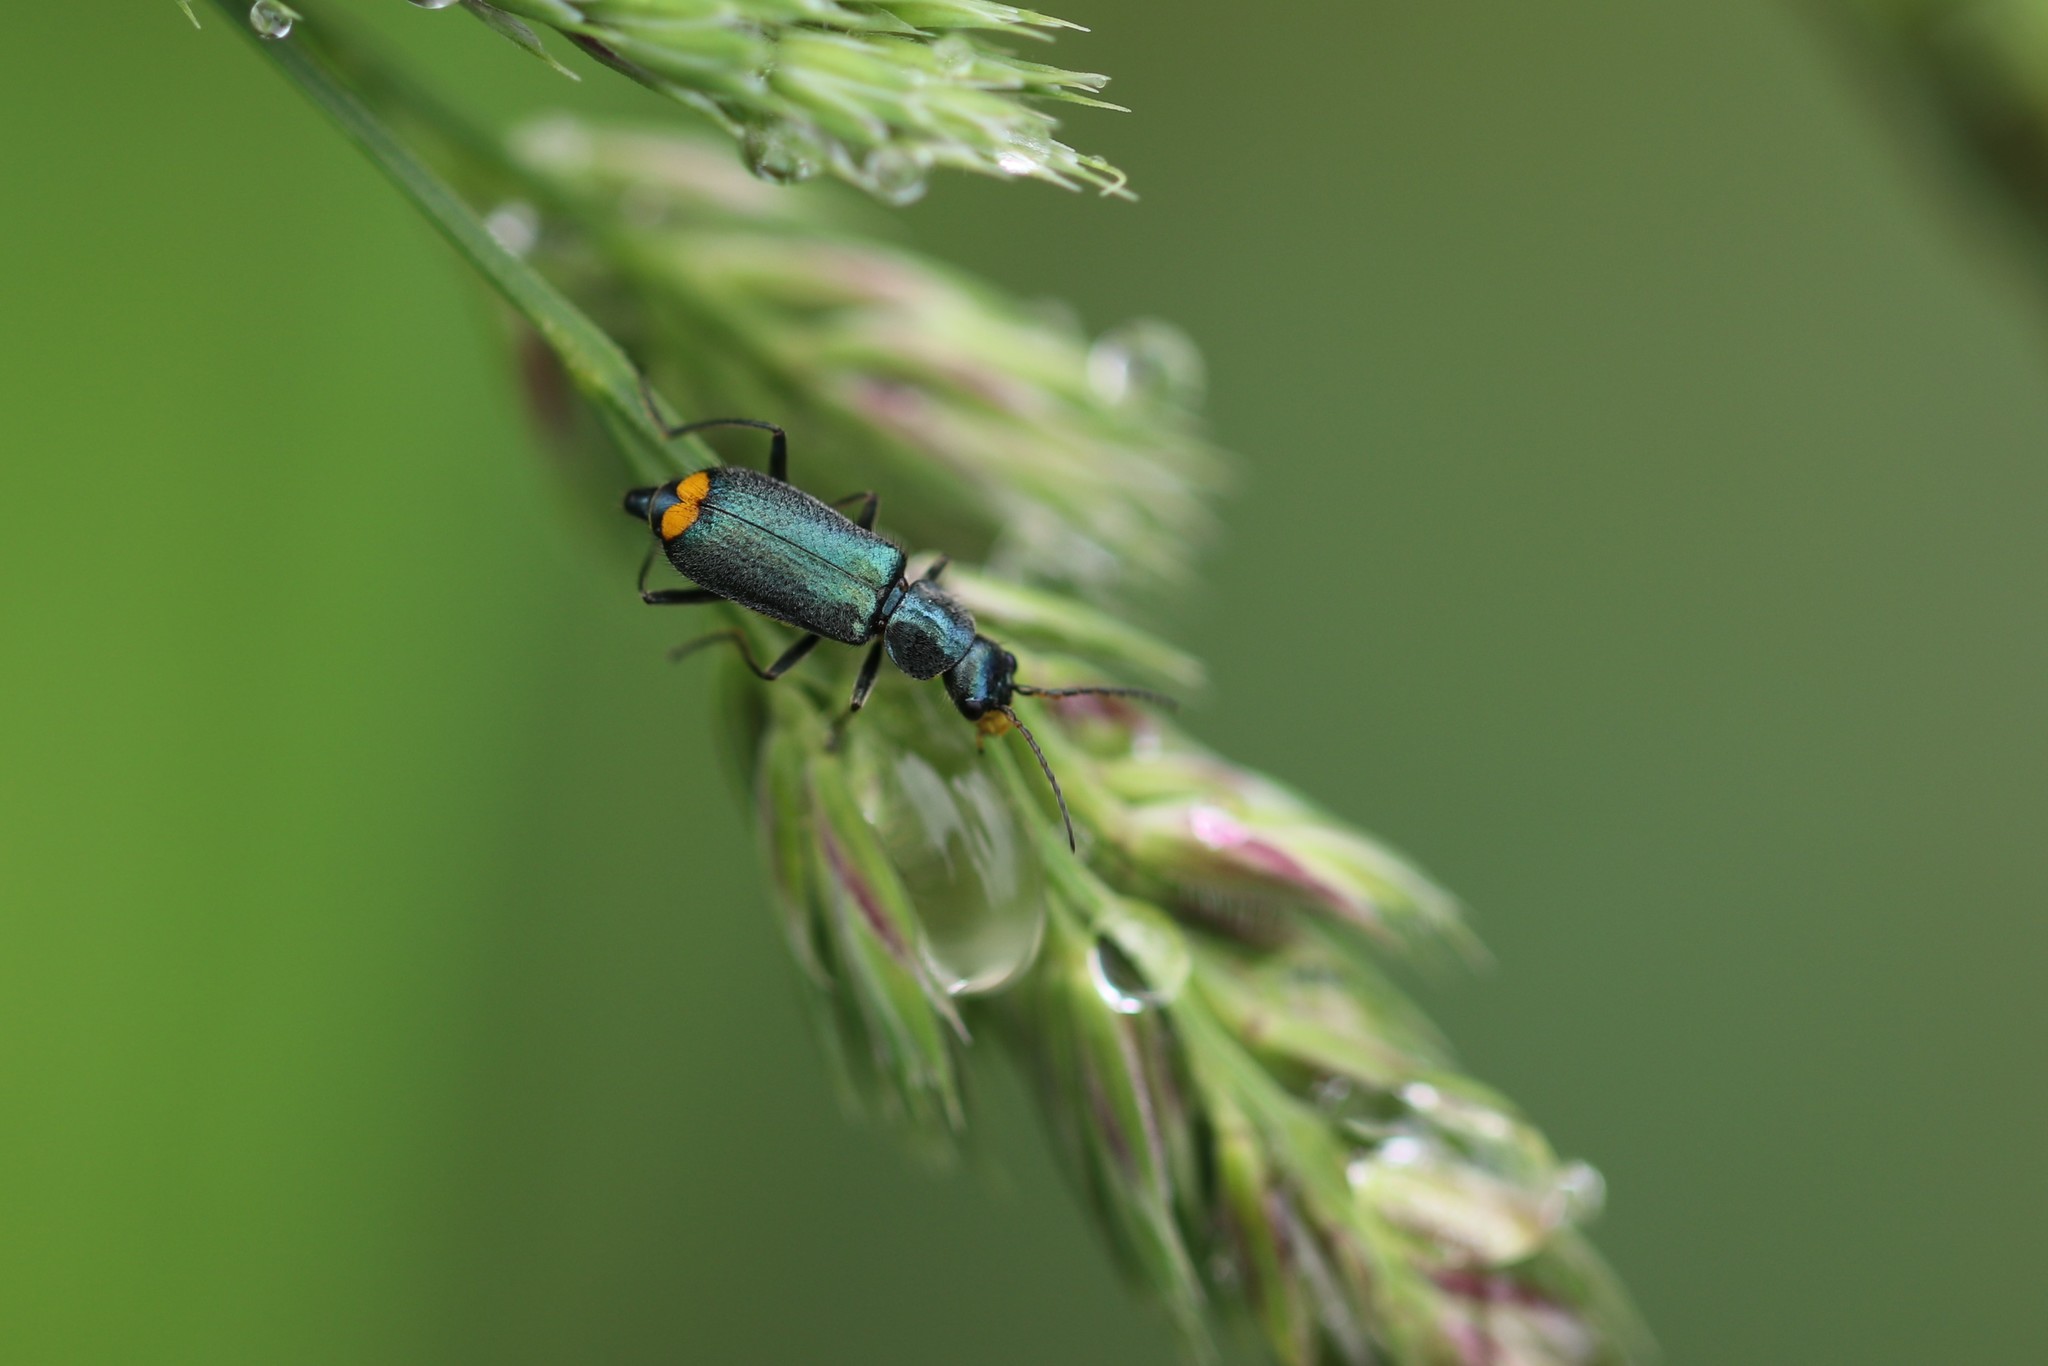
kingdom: Animalia
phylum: Arthropoda
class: Insecta
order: Coleoptera
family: Melyridae
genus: Malachius
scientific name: Malachius bipustulatus
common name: Malachite beetle
